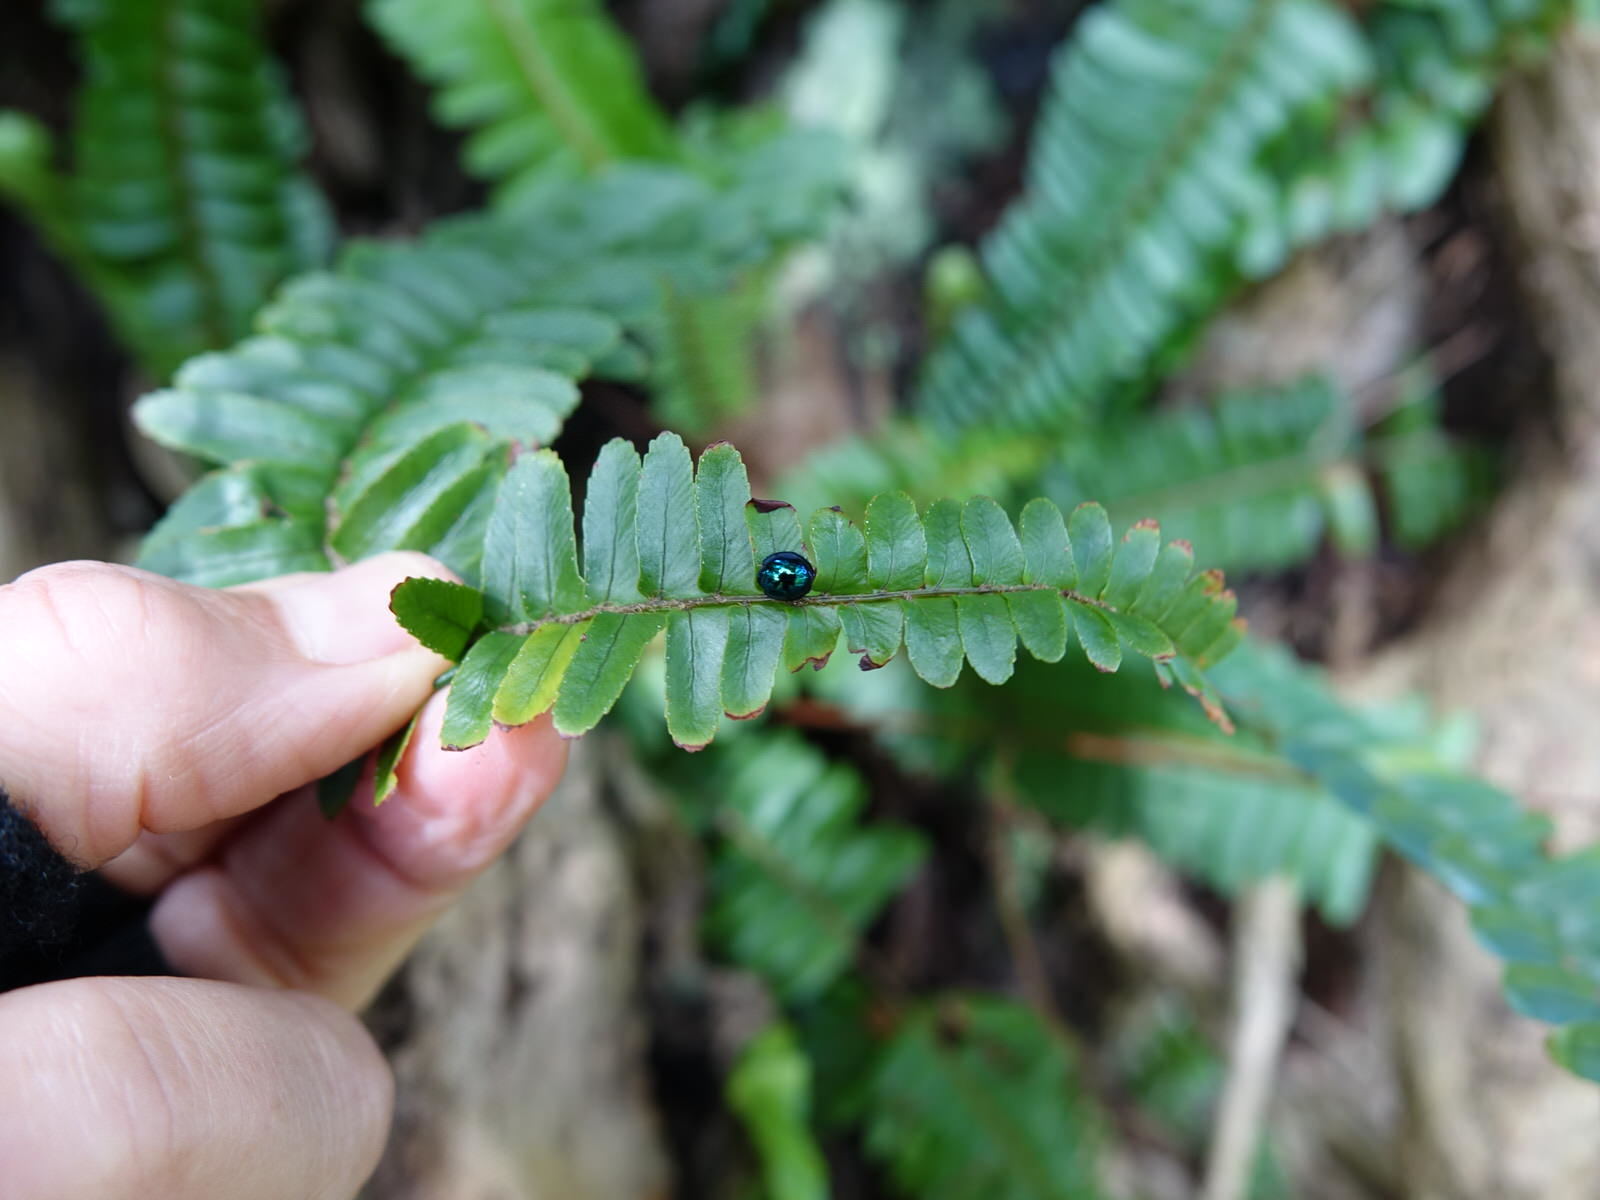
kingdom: Animalia
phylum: Arthropoda
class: Insecta
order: Coleoptera
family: Coccinellidae
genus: Halmus
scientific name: Halmus chalybeus
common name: Steel blue ladybird beetle
